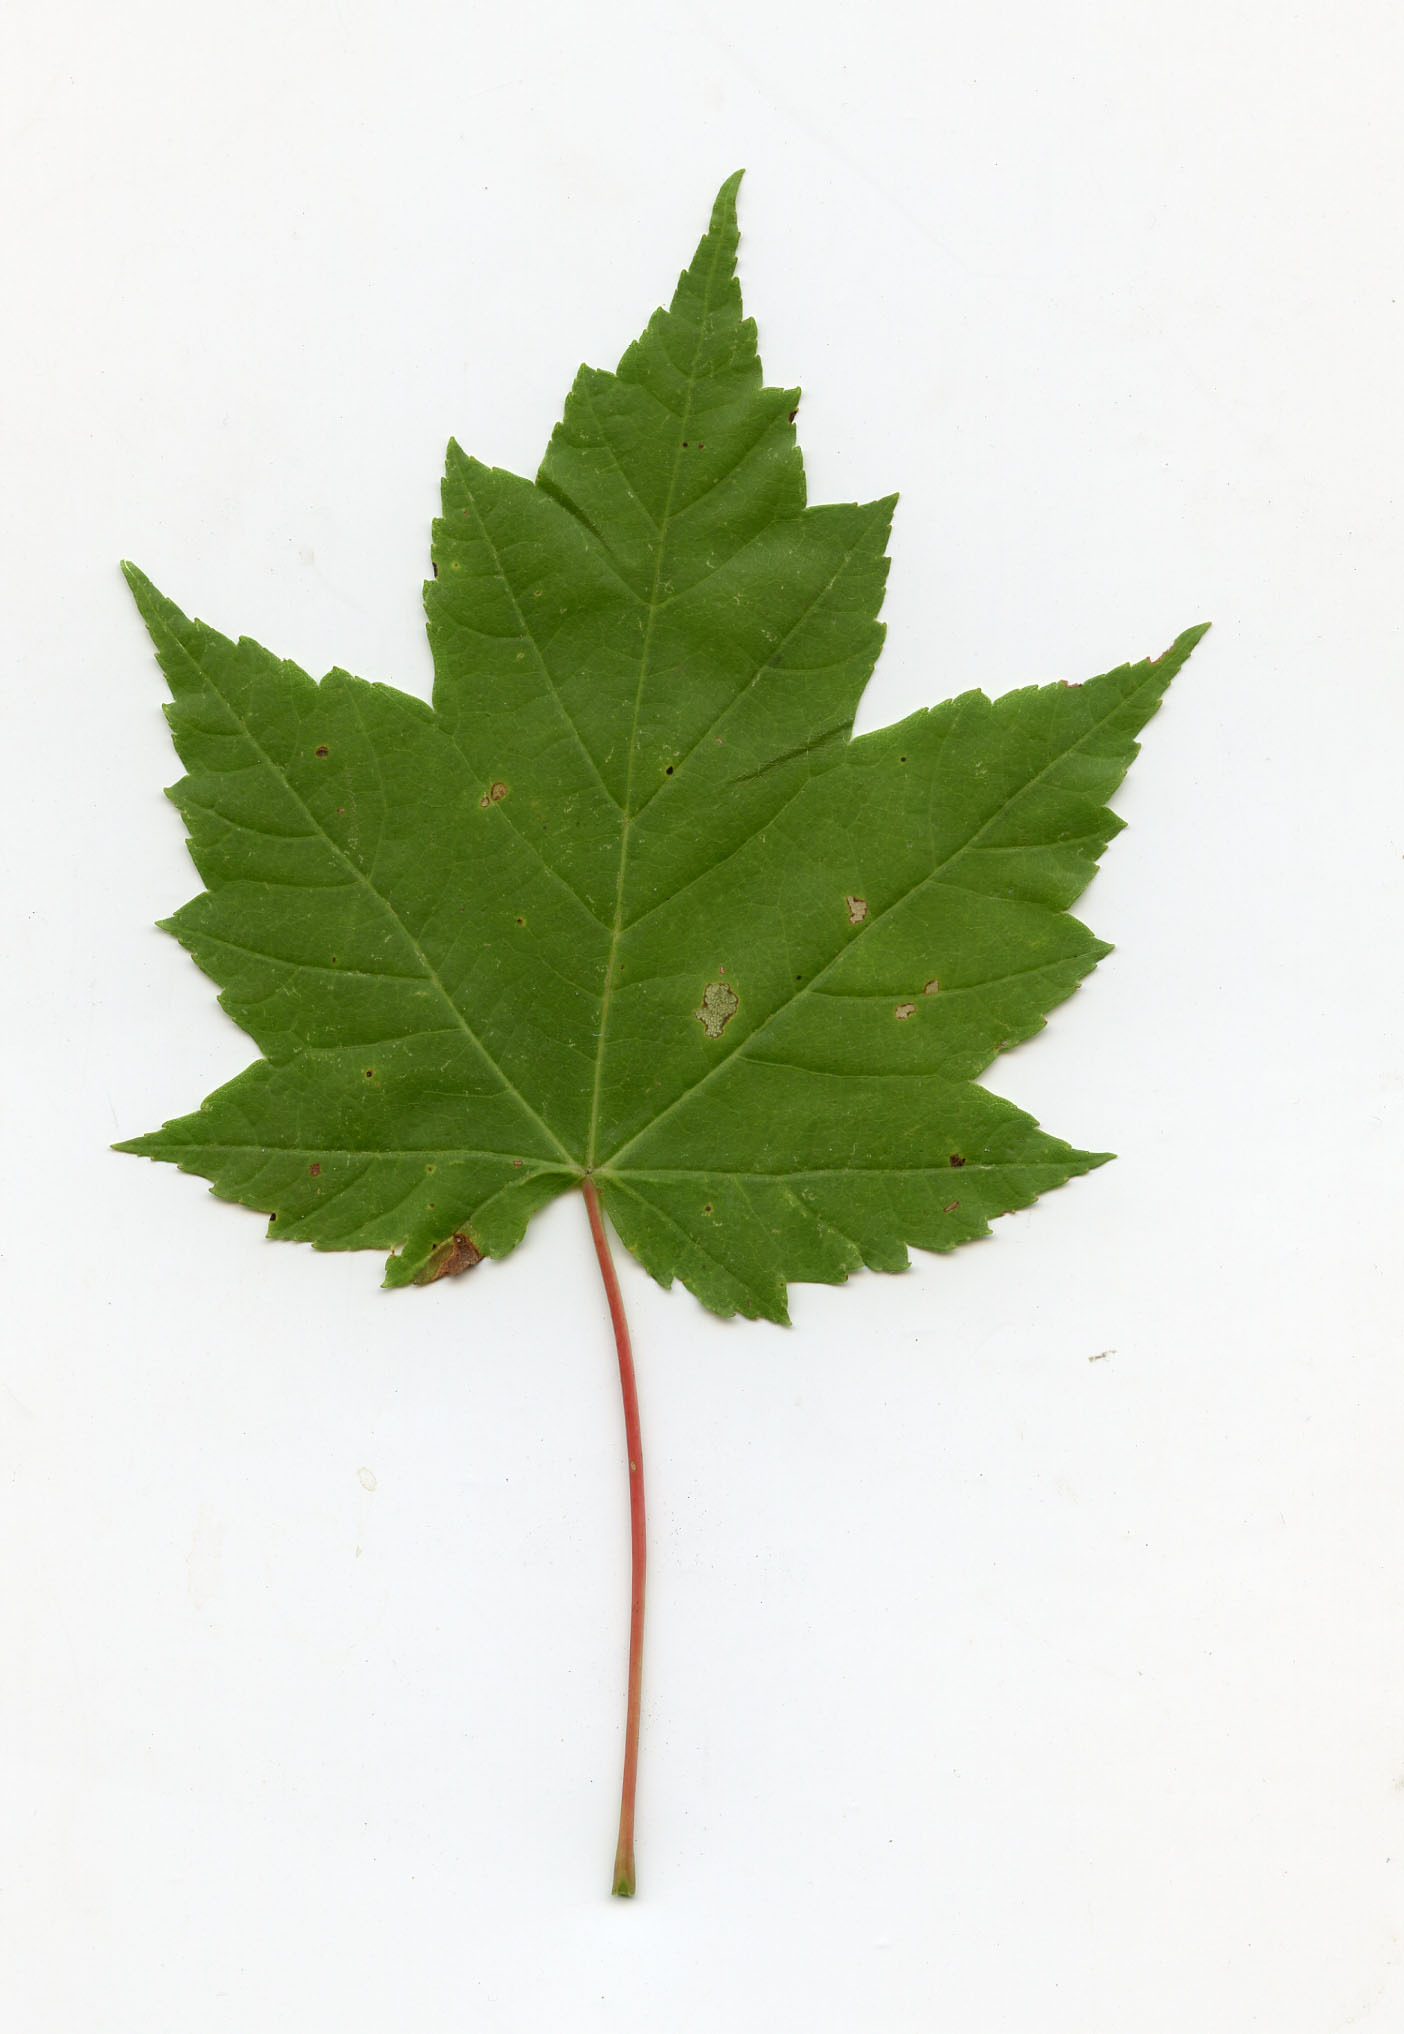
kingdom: Plantae
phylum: Tracheophyta
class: Magnoliopsida
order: Sapindales
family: Sapindaceae
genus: Acer
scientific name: Acer rubrum
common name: Red maple
